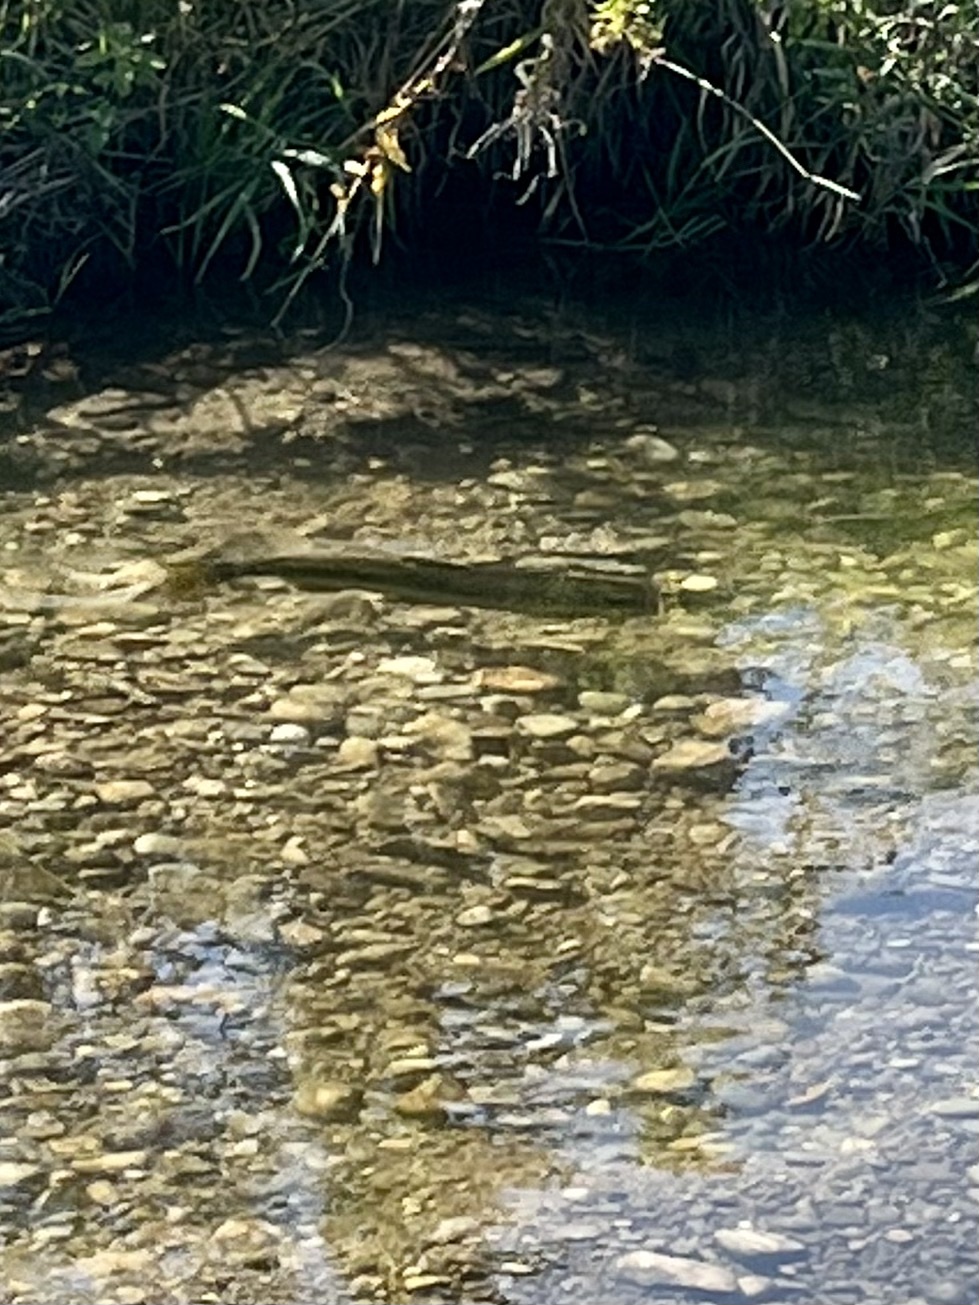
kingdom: Animalia
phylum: Chordata
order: Salmoniformes
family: Salmonidae
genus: Oncorhynchus
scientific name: Oncorhynchus tshawytscha
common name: Chinook salmon
